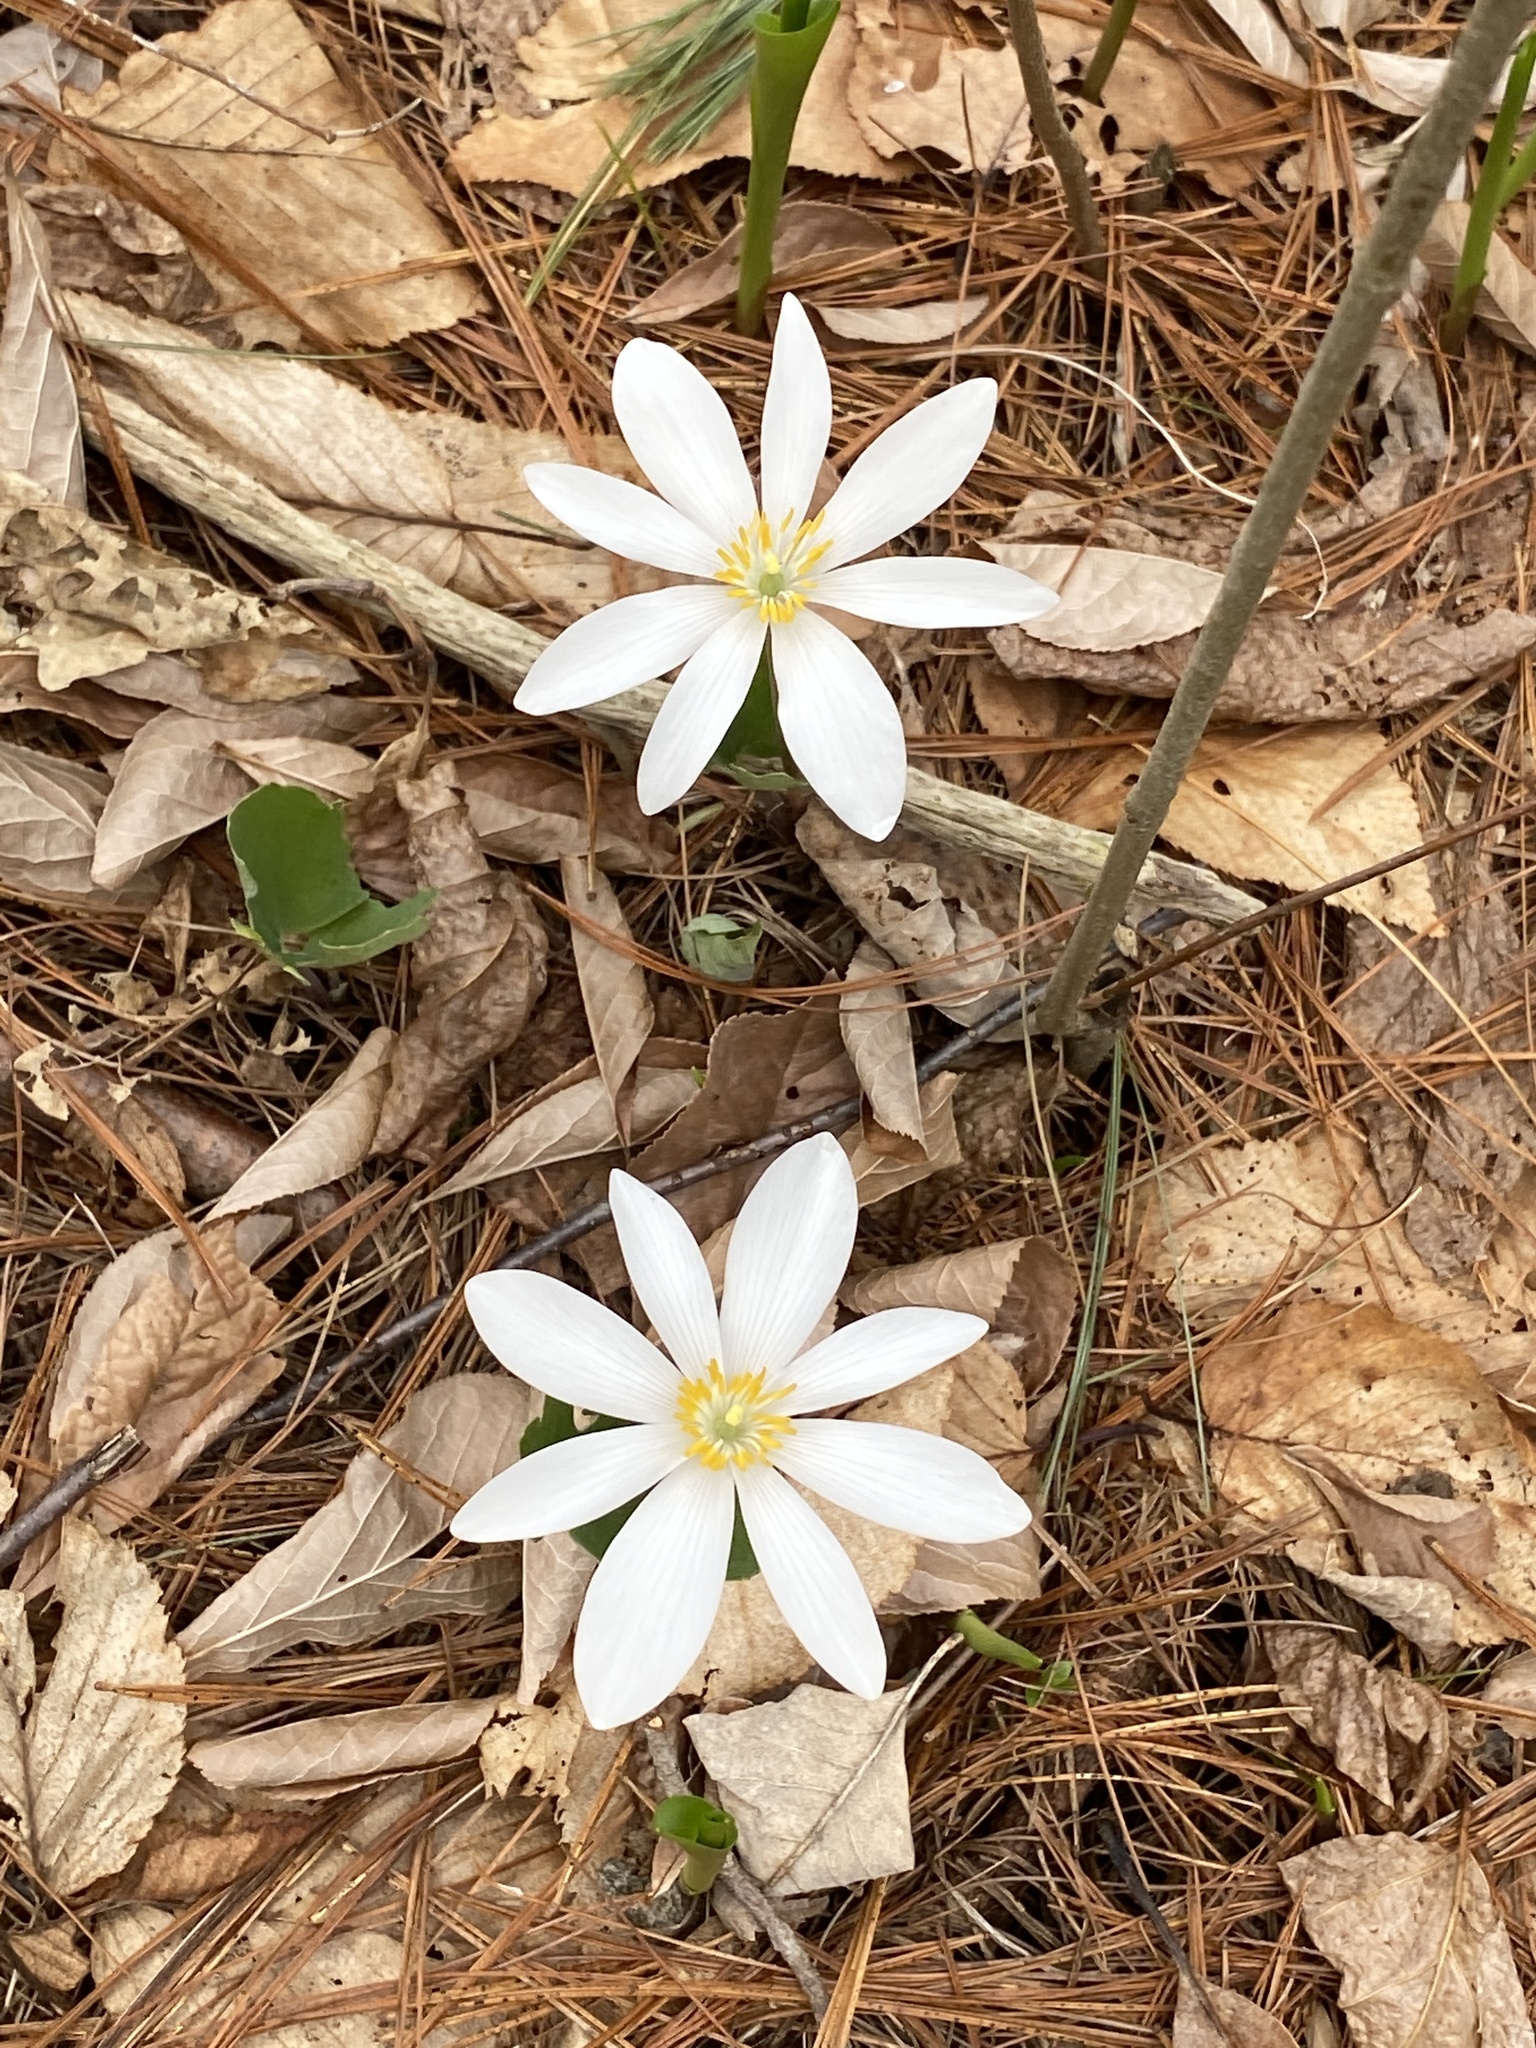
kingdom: Plantae
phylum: Tracheophyta
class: Magnoliopsida
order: Ranunculales
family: Papaveraceae
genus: Sanguinaria
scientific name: Sanguinaria canadensis
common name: Bloodroot
